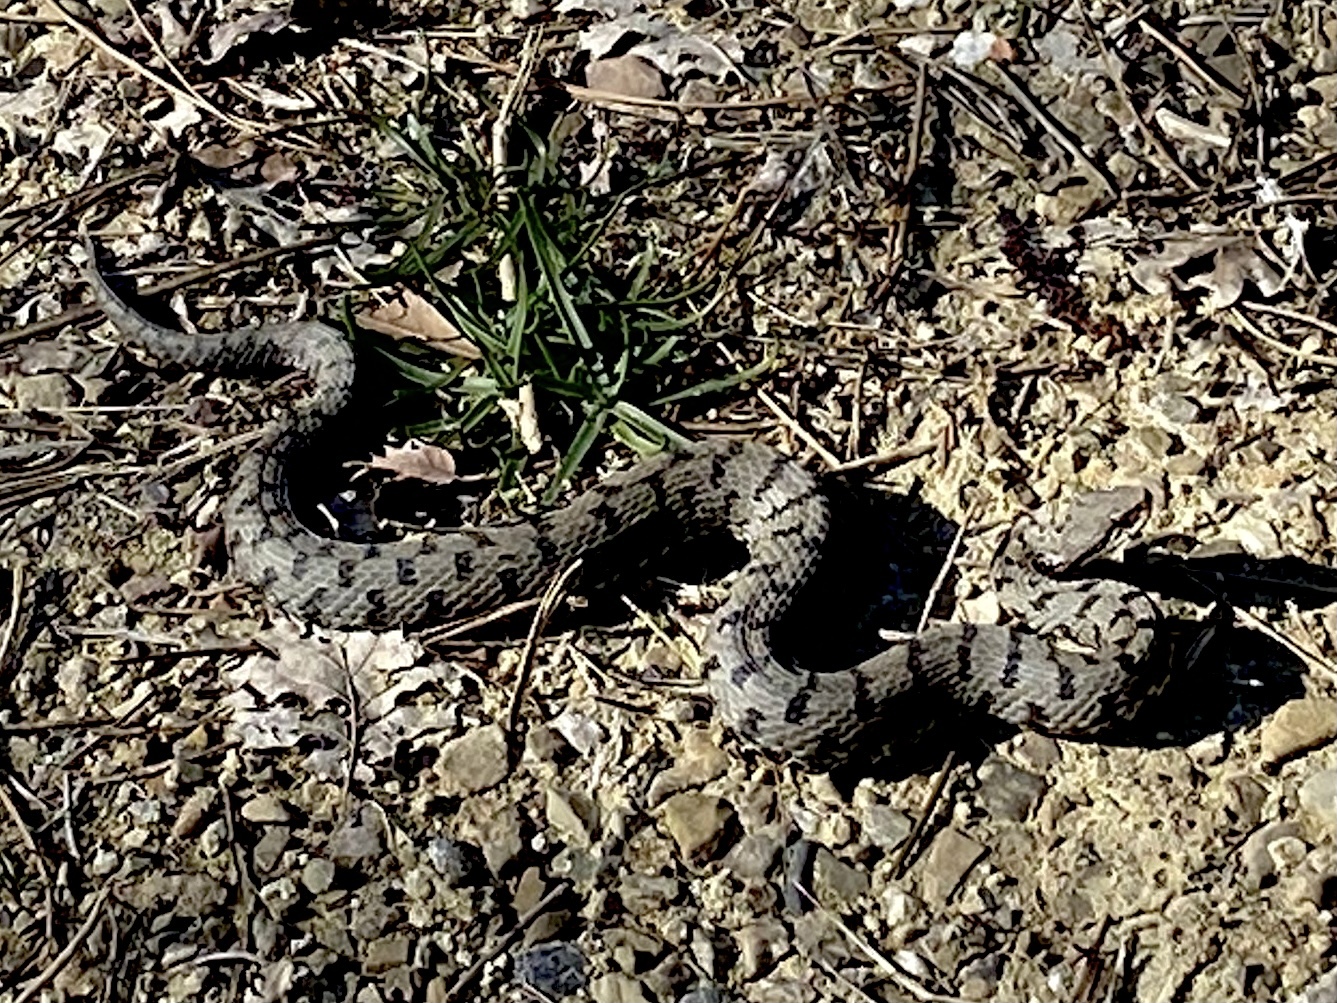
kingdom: Animalia
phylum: Chordata
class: Squamata
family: Viperidae
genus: Vipera
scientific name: Vipera aspis
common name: Asp viper
